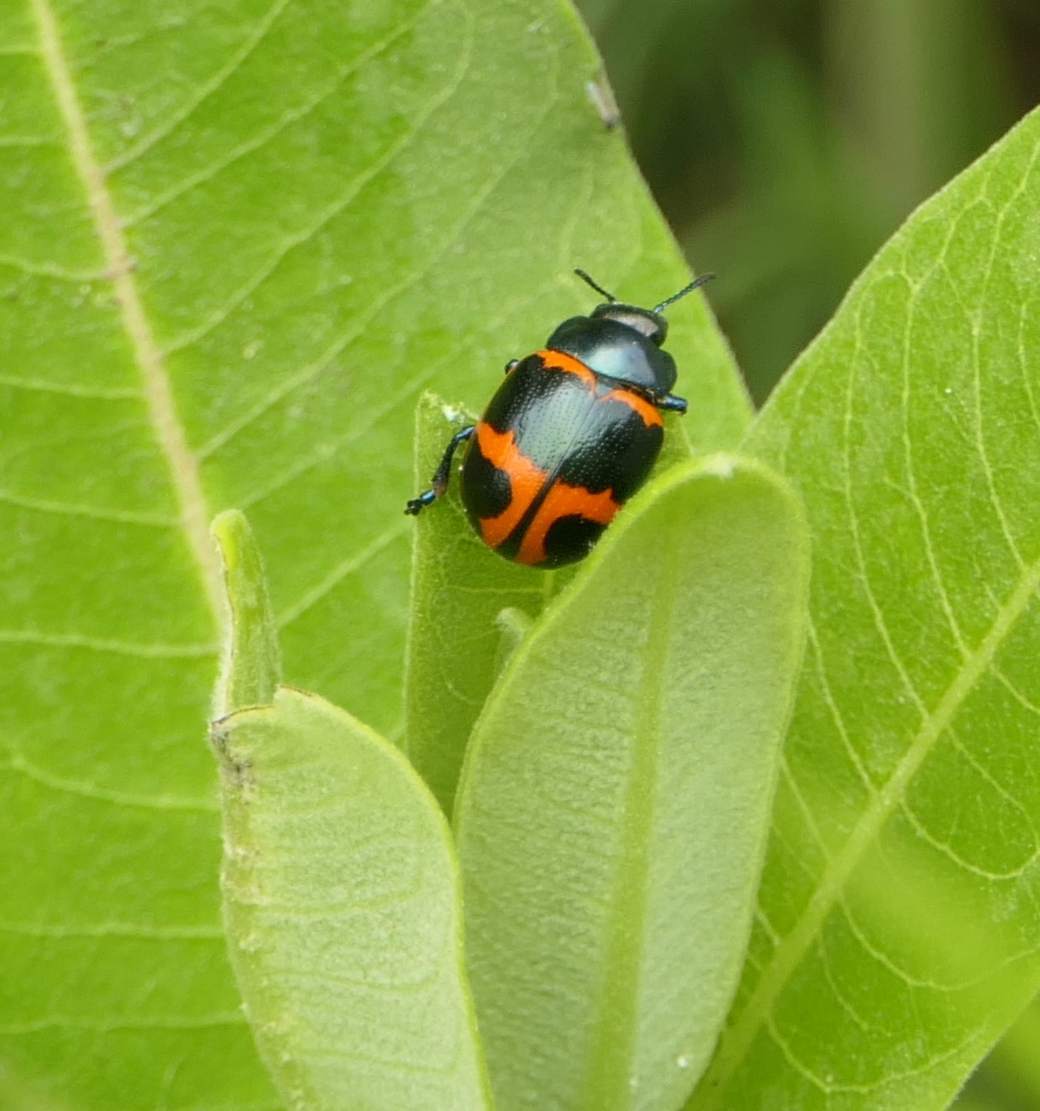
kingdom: Animalia
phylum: Arthropoda
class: Insecta
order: Coleoptera
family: Chrysomelidae
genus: Labidomera
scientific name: Labidomera clivicollis
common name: Swamp milkweed leaf beetle
